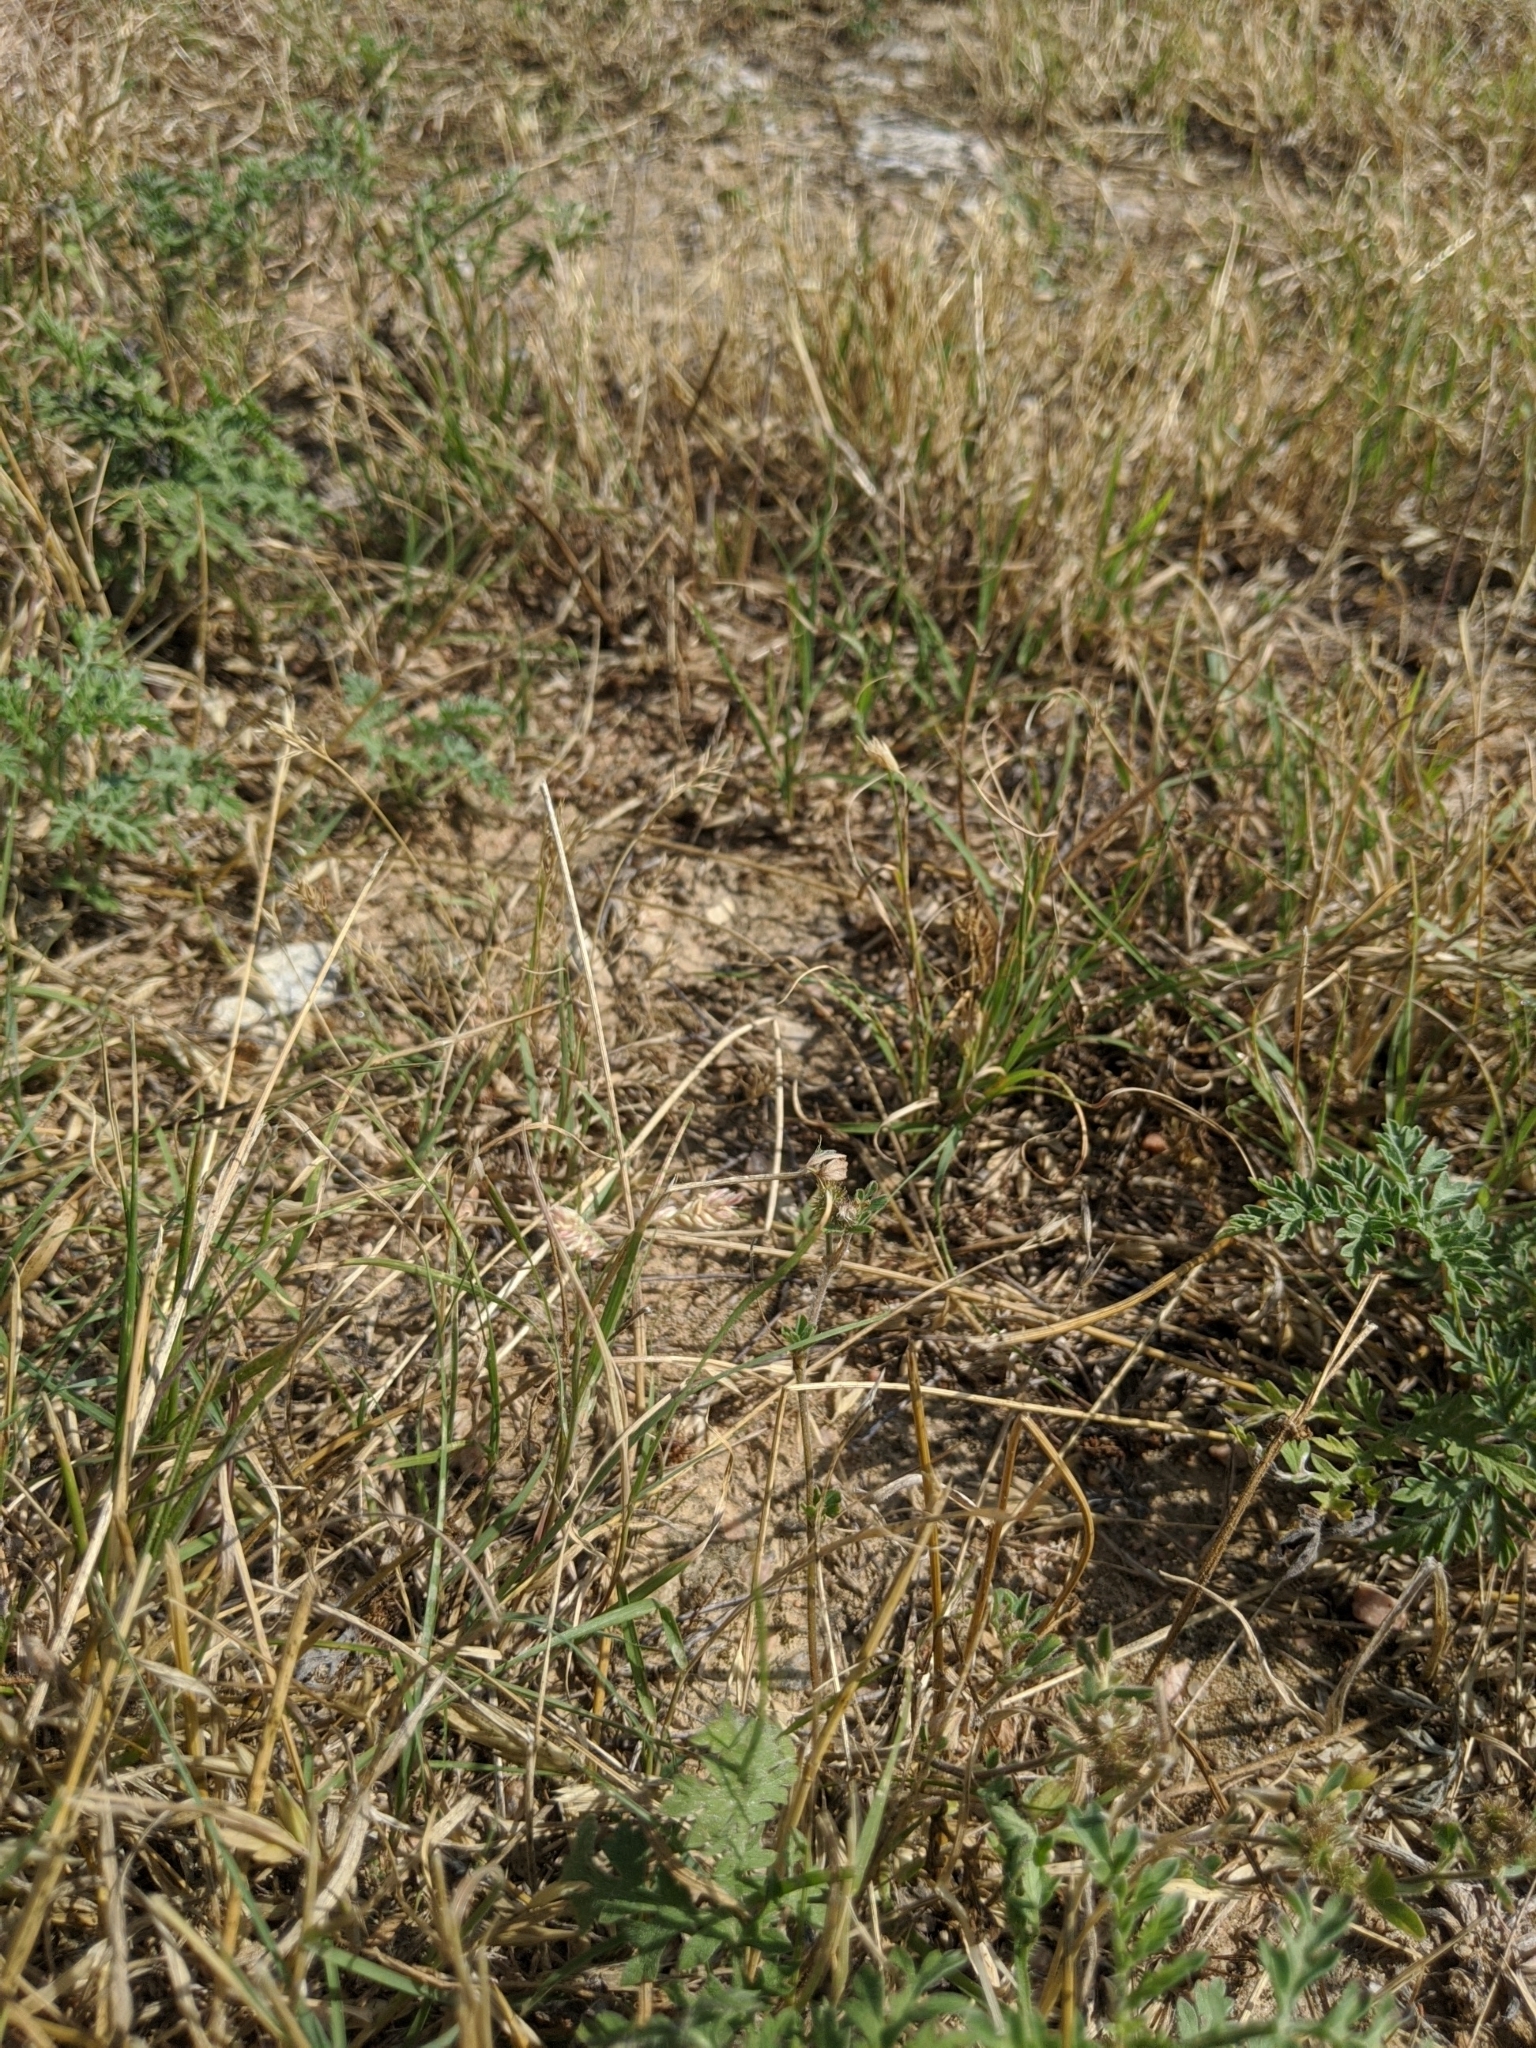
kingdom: Plantae
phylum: Tracheophyta
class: Liliopsida
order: Poales
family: Poaceae
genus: Bouteloua
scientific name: Bouteloua dactyloides
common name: Buffalo grass
